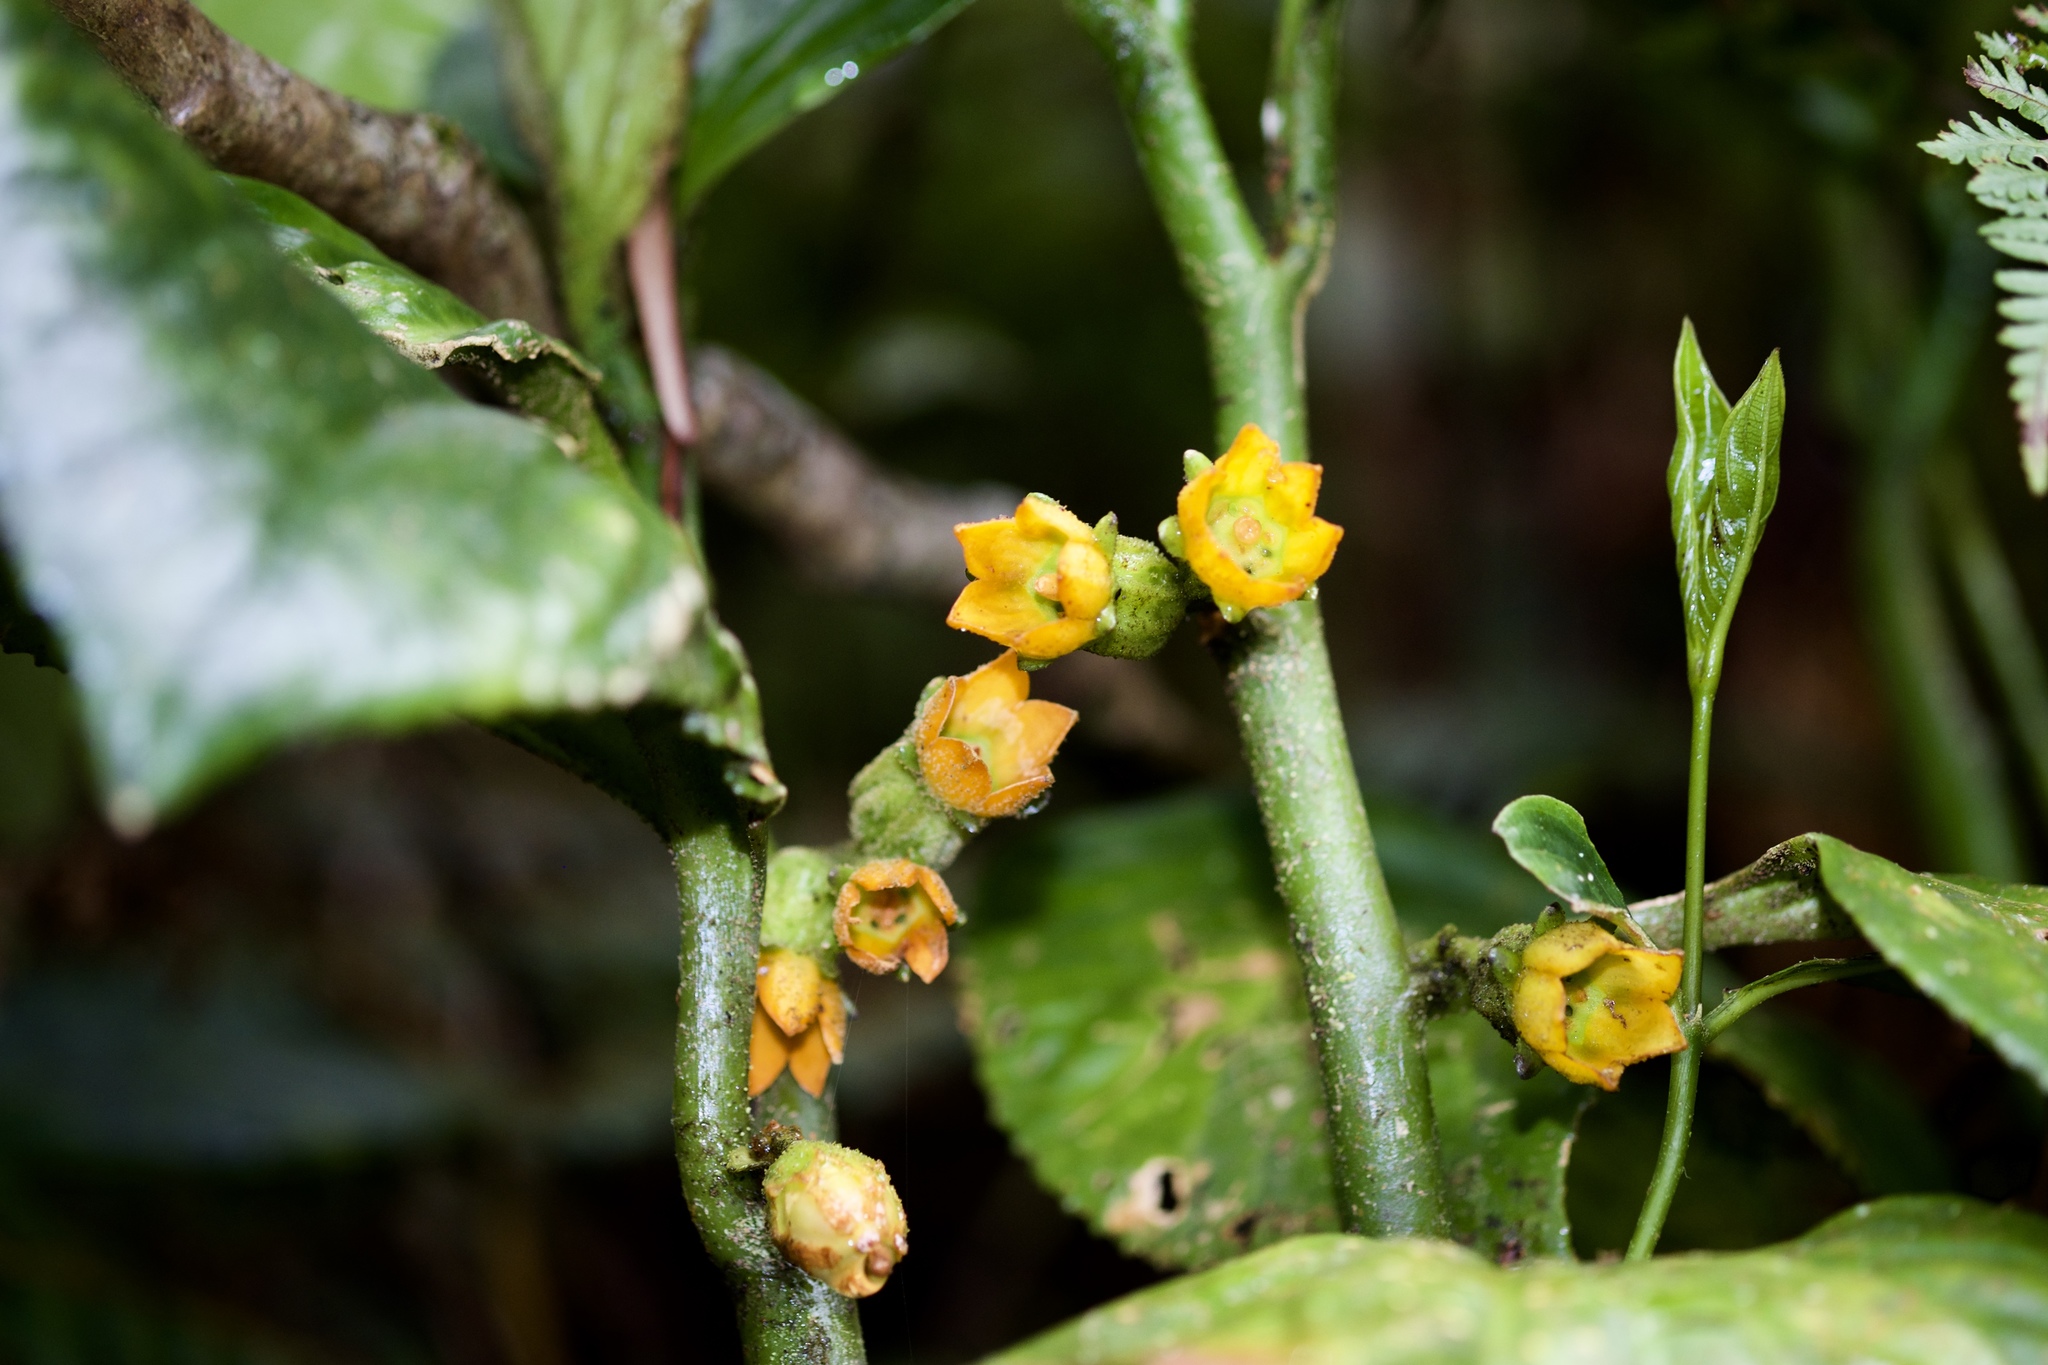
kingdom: Plantae
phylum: Tracheophyta
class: Magnoliopsida
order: Asterales
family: Pentaphragmataceae
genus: Pentaphragma
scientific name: Pentaphragma aurantiacum
